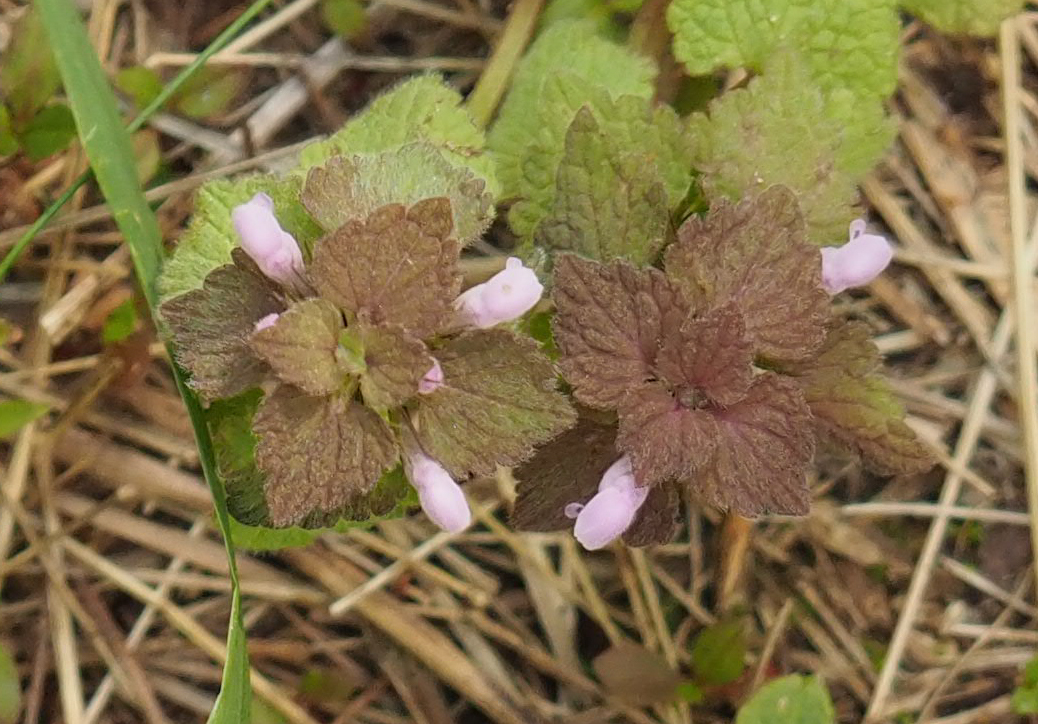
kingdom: Plantae
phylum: Tracheophyta
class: Magnoliopsida
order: Lamiales
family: Lamiaceae
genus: Lamium
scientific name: Lamium purpureum
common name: Red dead-nettle
